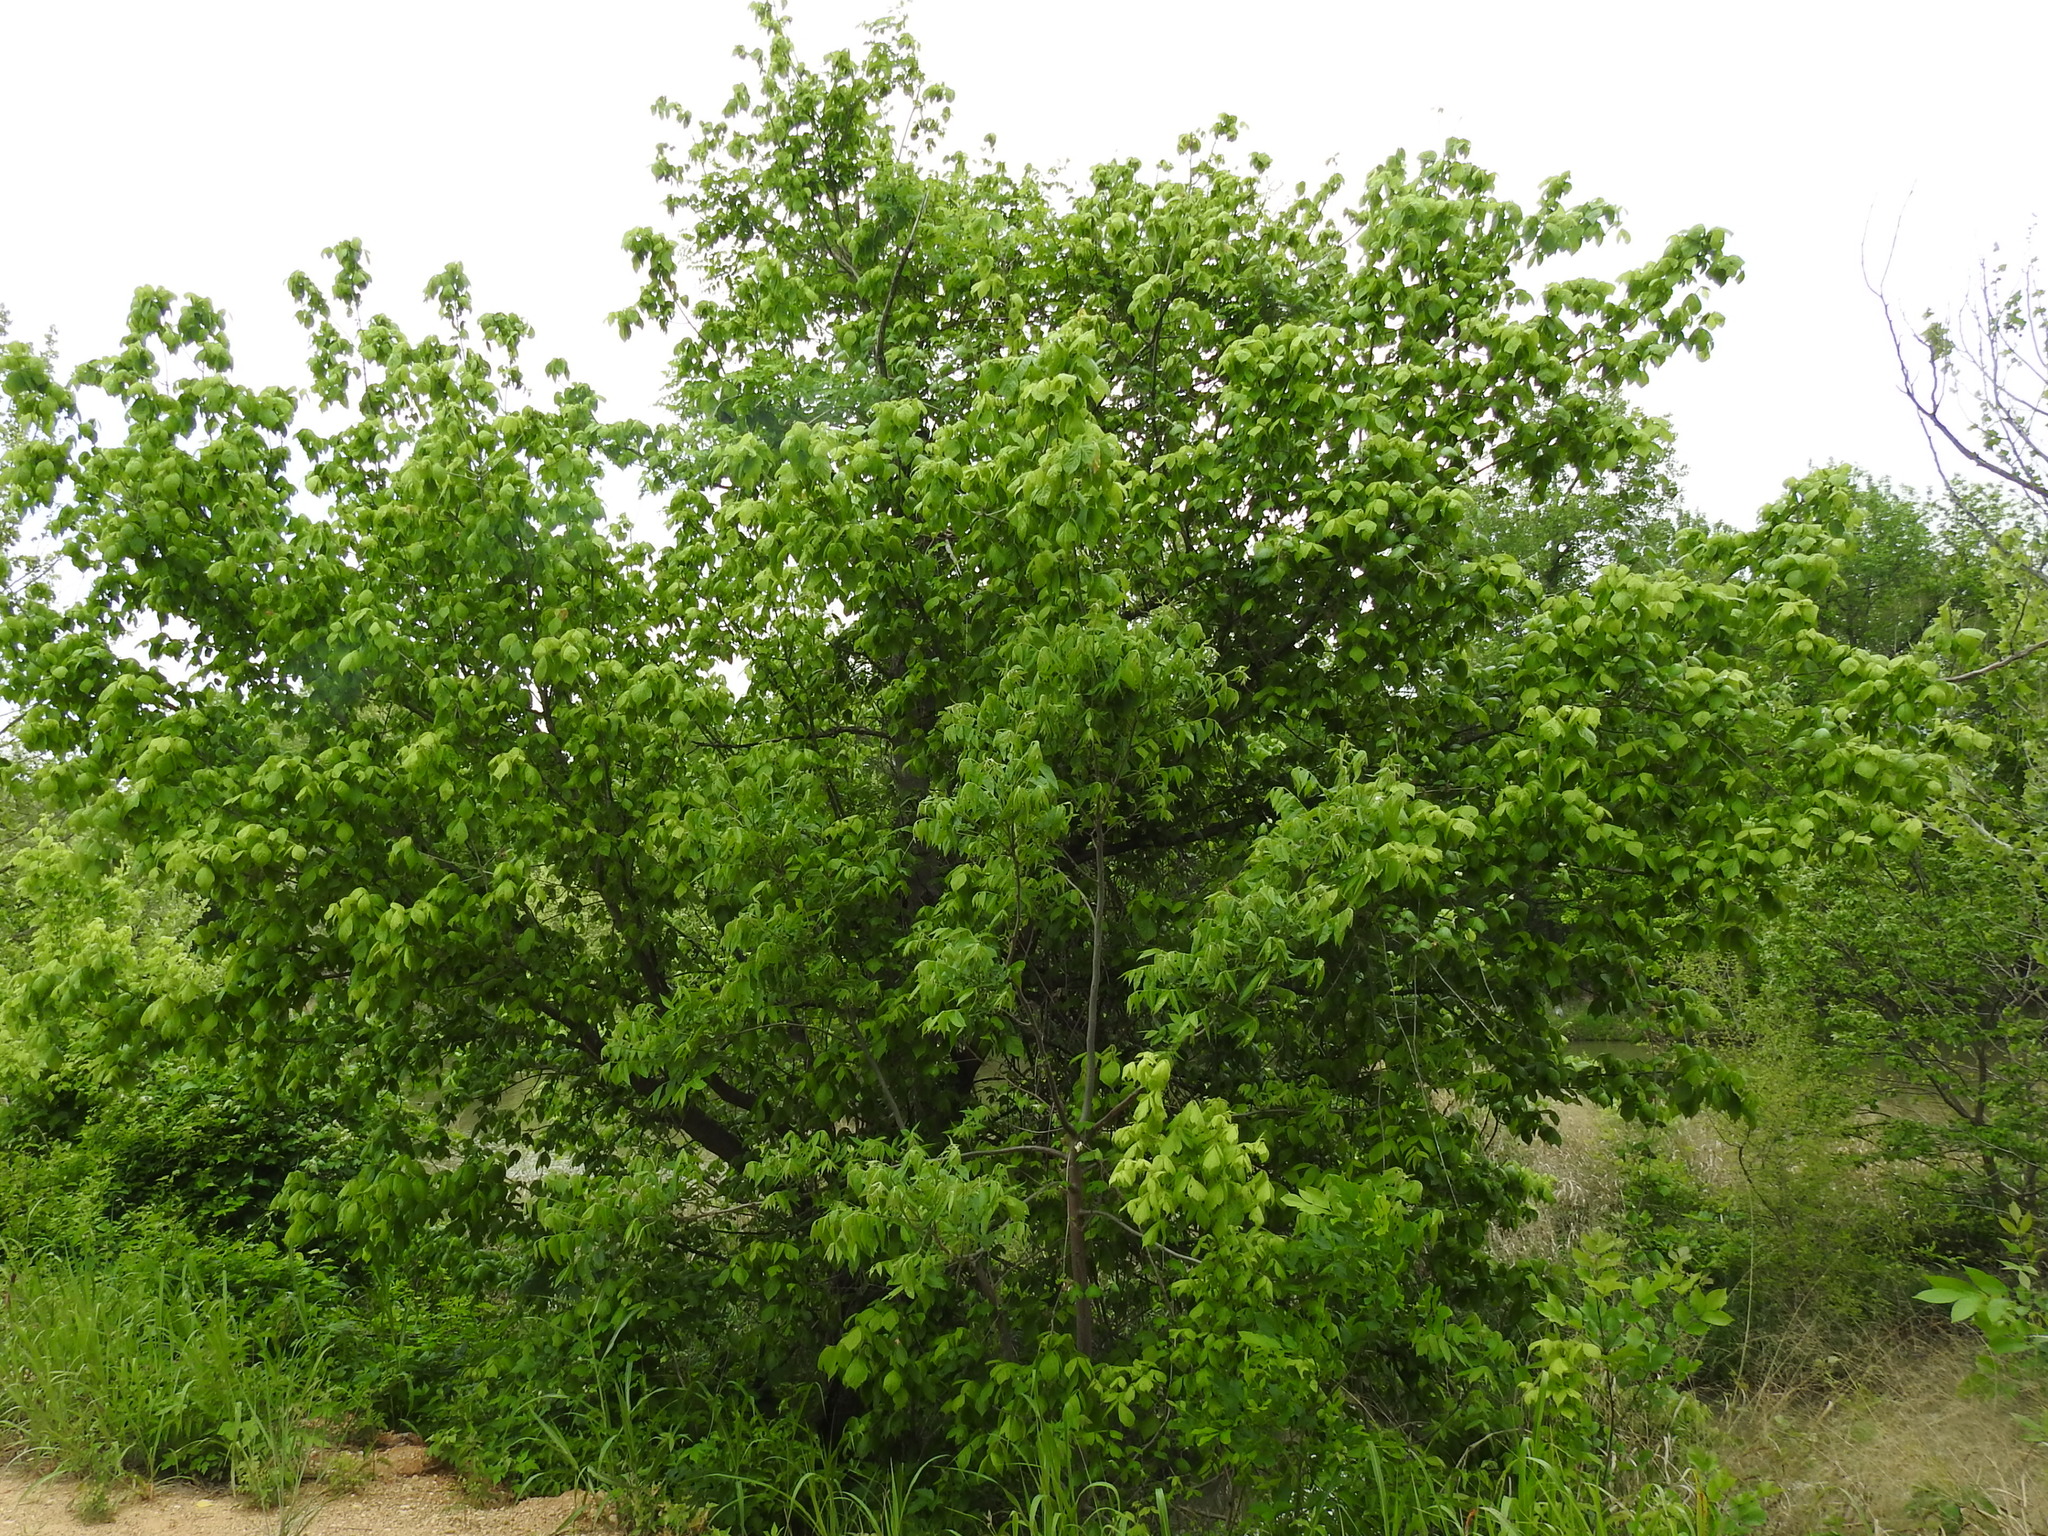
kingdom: Plantae
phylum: Tracheophyta
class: Magnoliopsida
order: Sapindales
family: Sapindaceae
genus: Acer
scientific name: Acer negundo
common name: Ashleaf maple
